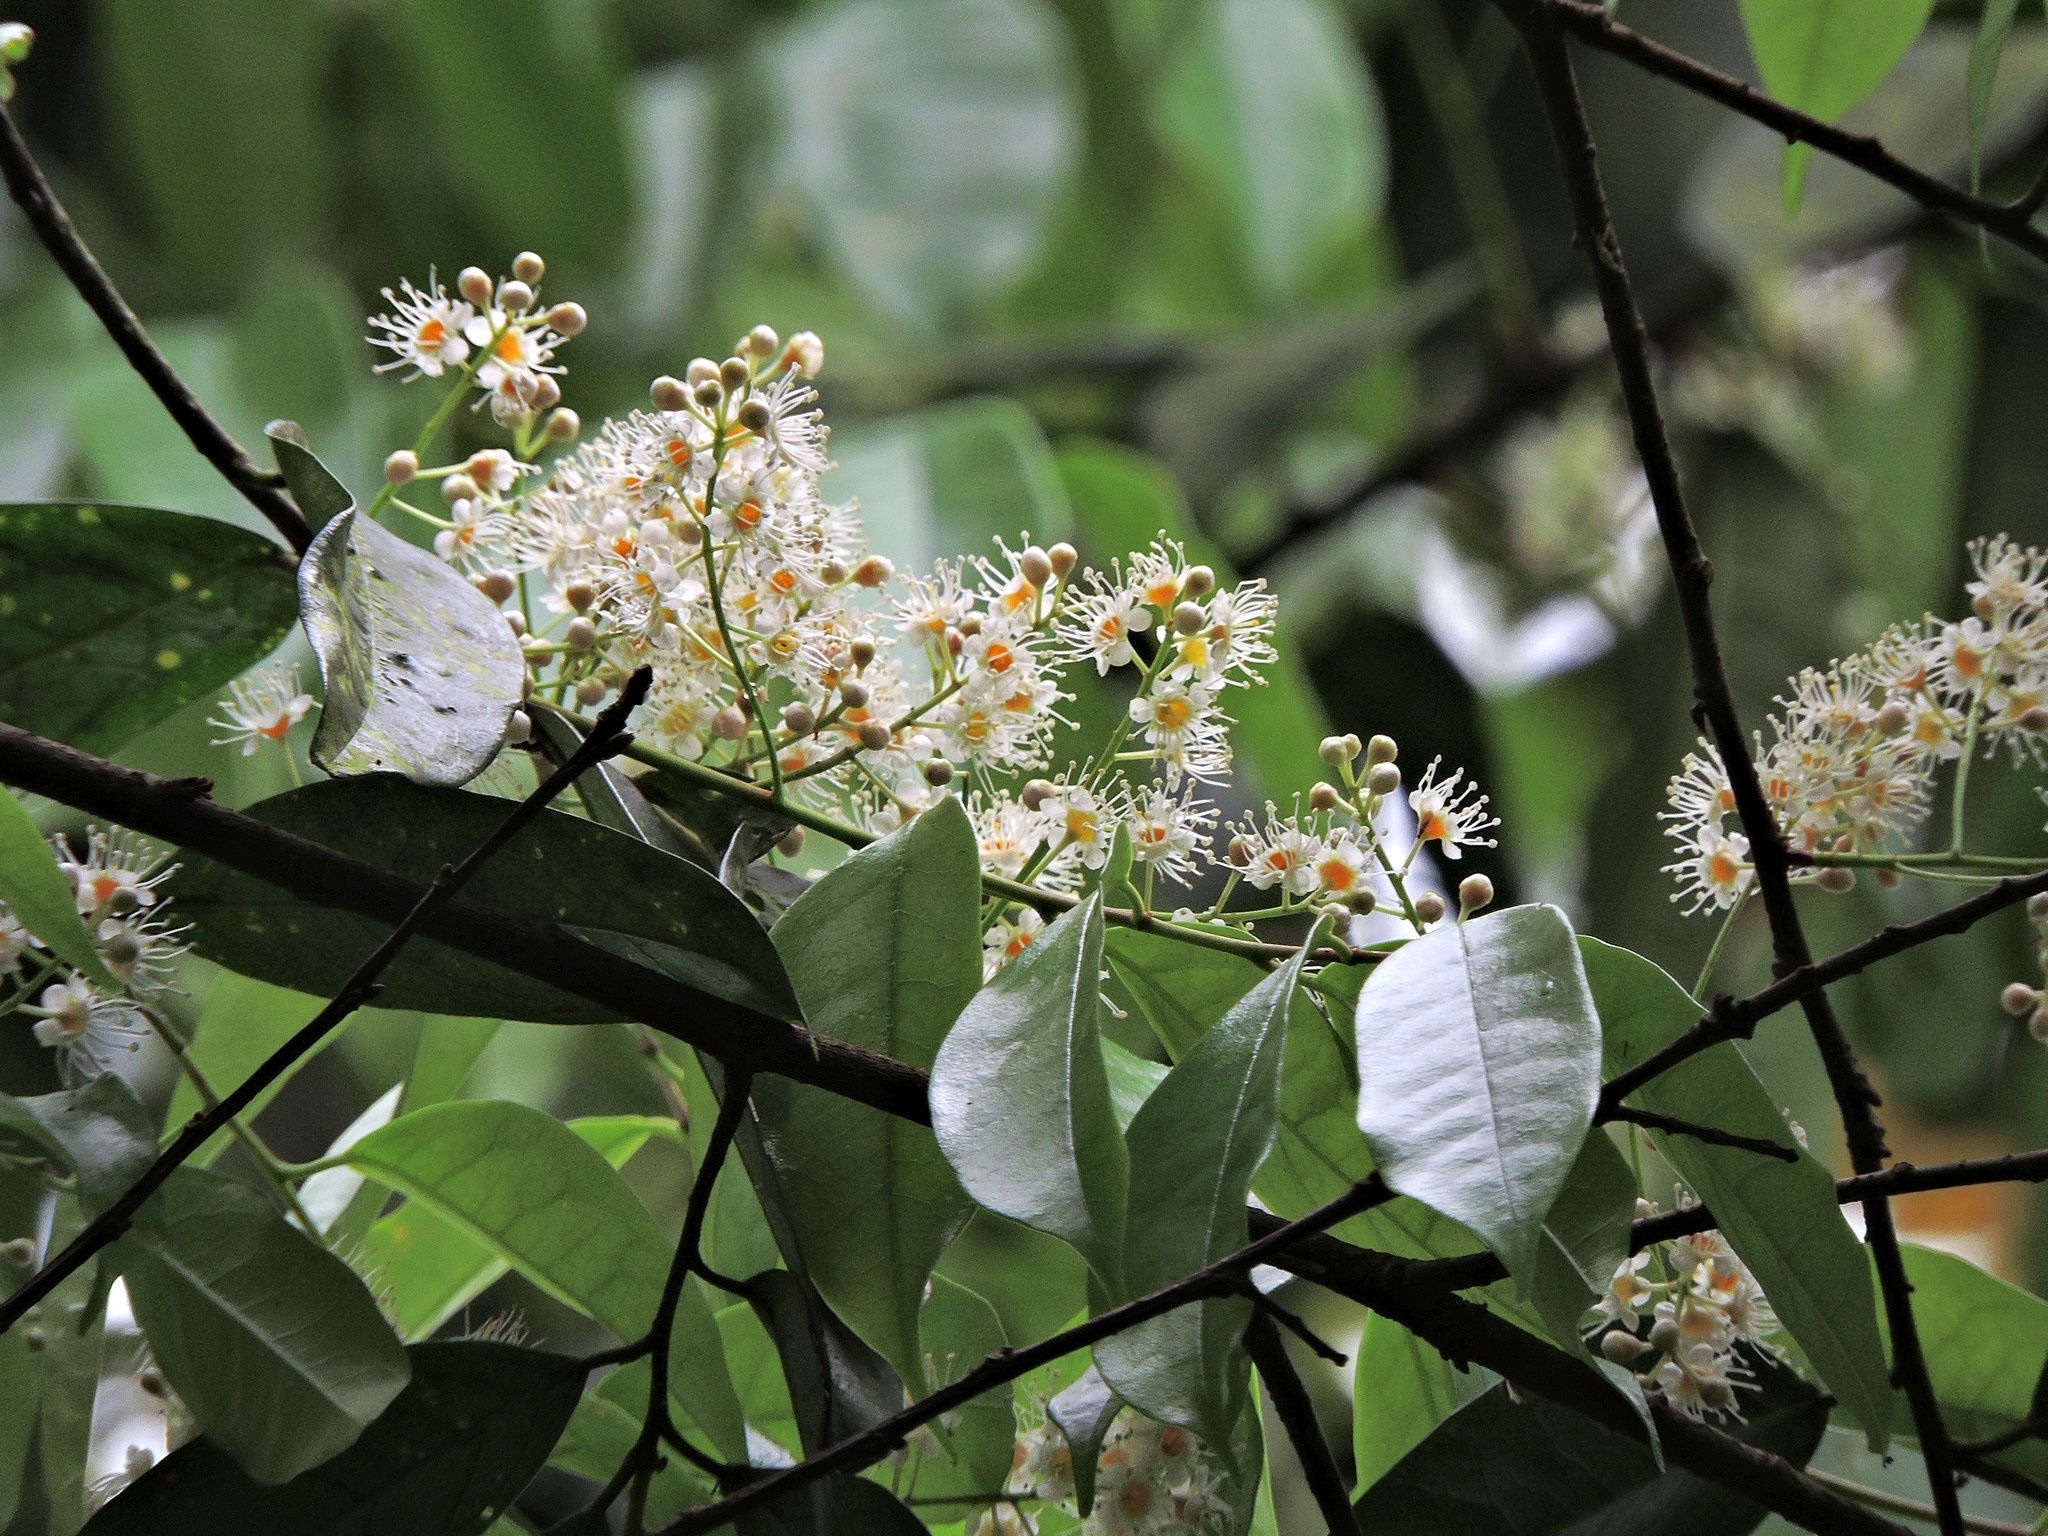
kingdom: Plantae
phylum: Tracheophyta
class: Magnoliopsida
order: Rosales
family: Rosaceae
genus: Prunus
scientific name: Prunus phaeosticta
